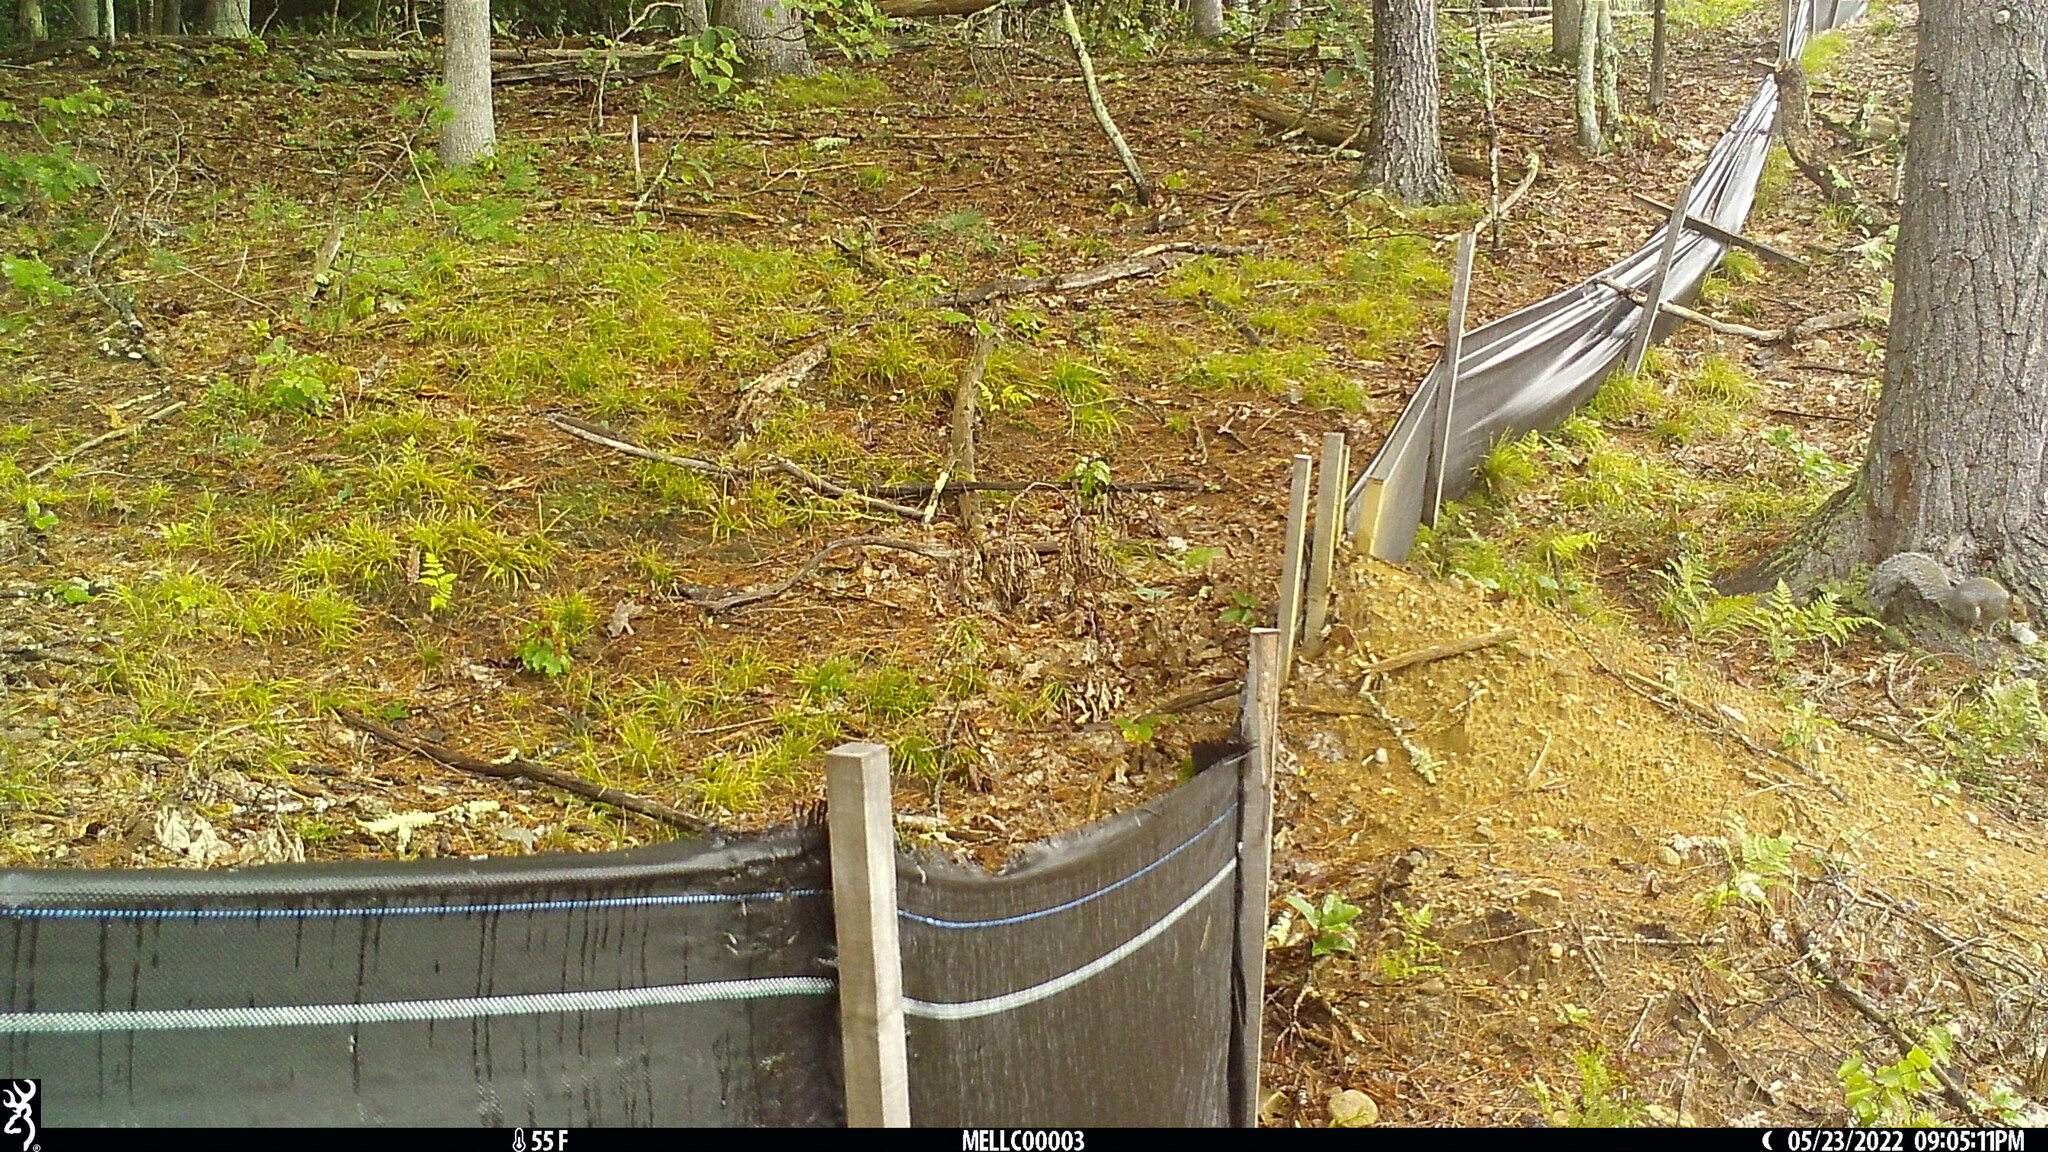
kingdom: Animalia
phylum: Chordata
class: Mammalia
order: Rodentia
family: Sciuridae
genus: Sciurus
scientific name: Sciurus carolinensis
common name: Eastern gray squirrel
